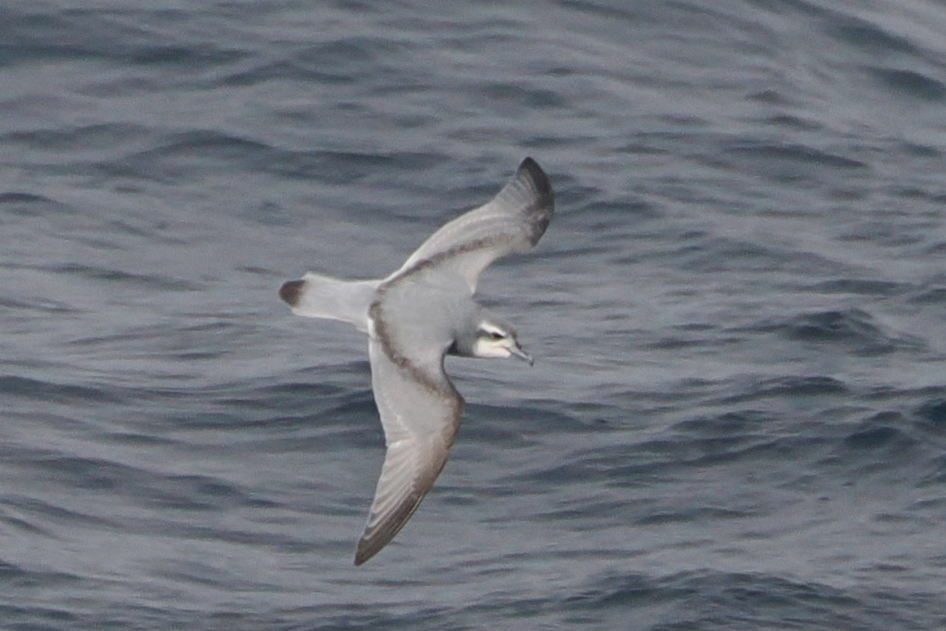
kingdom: Animalia
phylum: Chordata
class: Aves
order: Procellariiformes
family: Procellariidae
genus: Pachyptila
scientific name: Pachyptila belcheri
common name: Slender-billed prion
